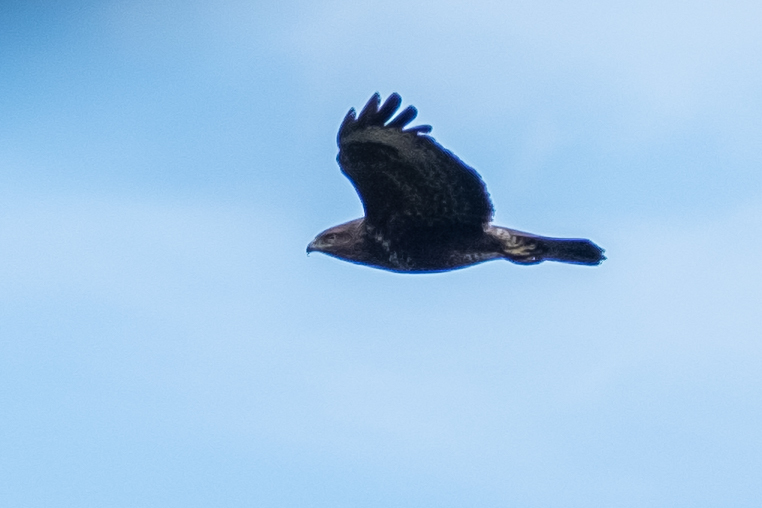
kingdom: Animalia
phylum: Chordata
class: Aves
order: Accipitriformes
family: Accipitridae
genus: Buteo
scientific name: Buteo buteo
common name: Common buzzard
